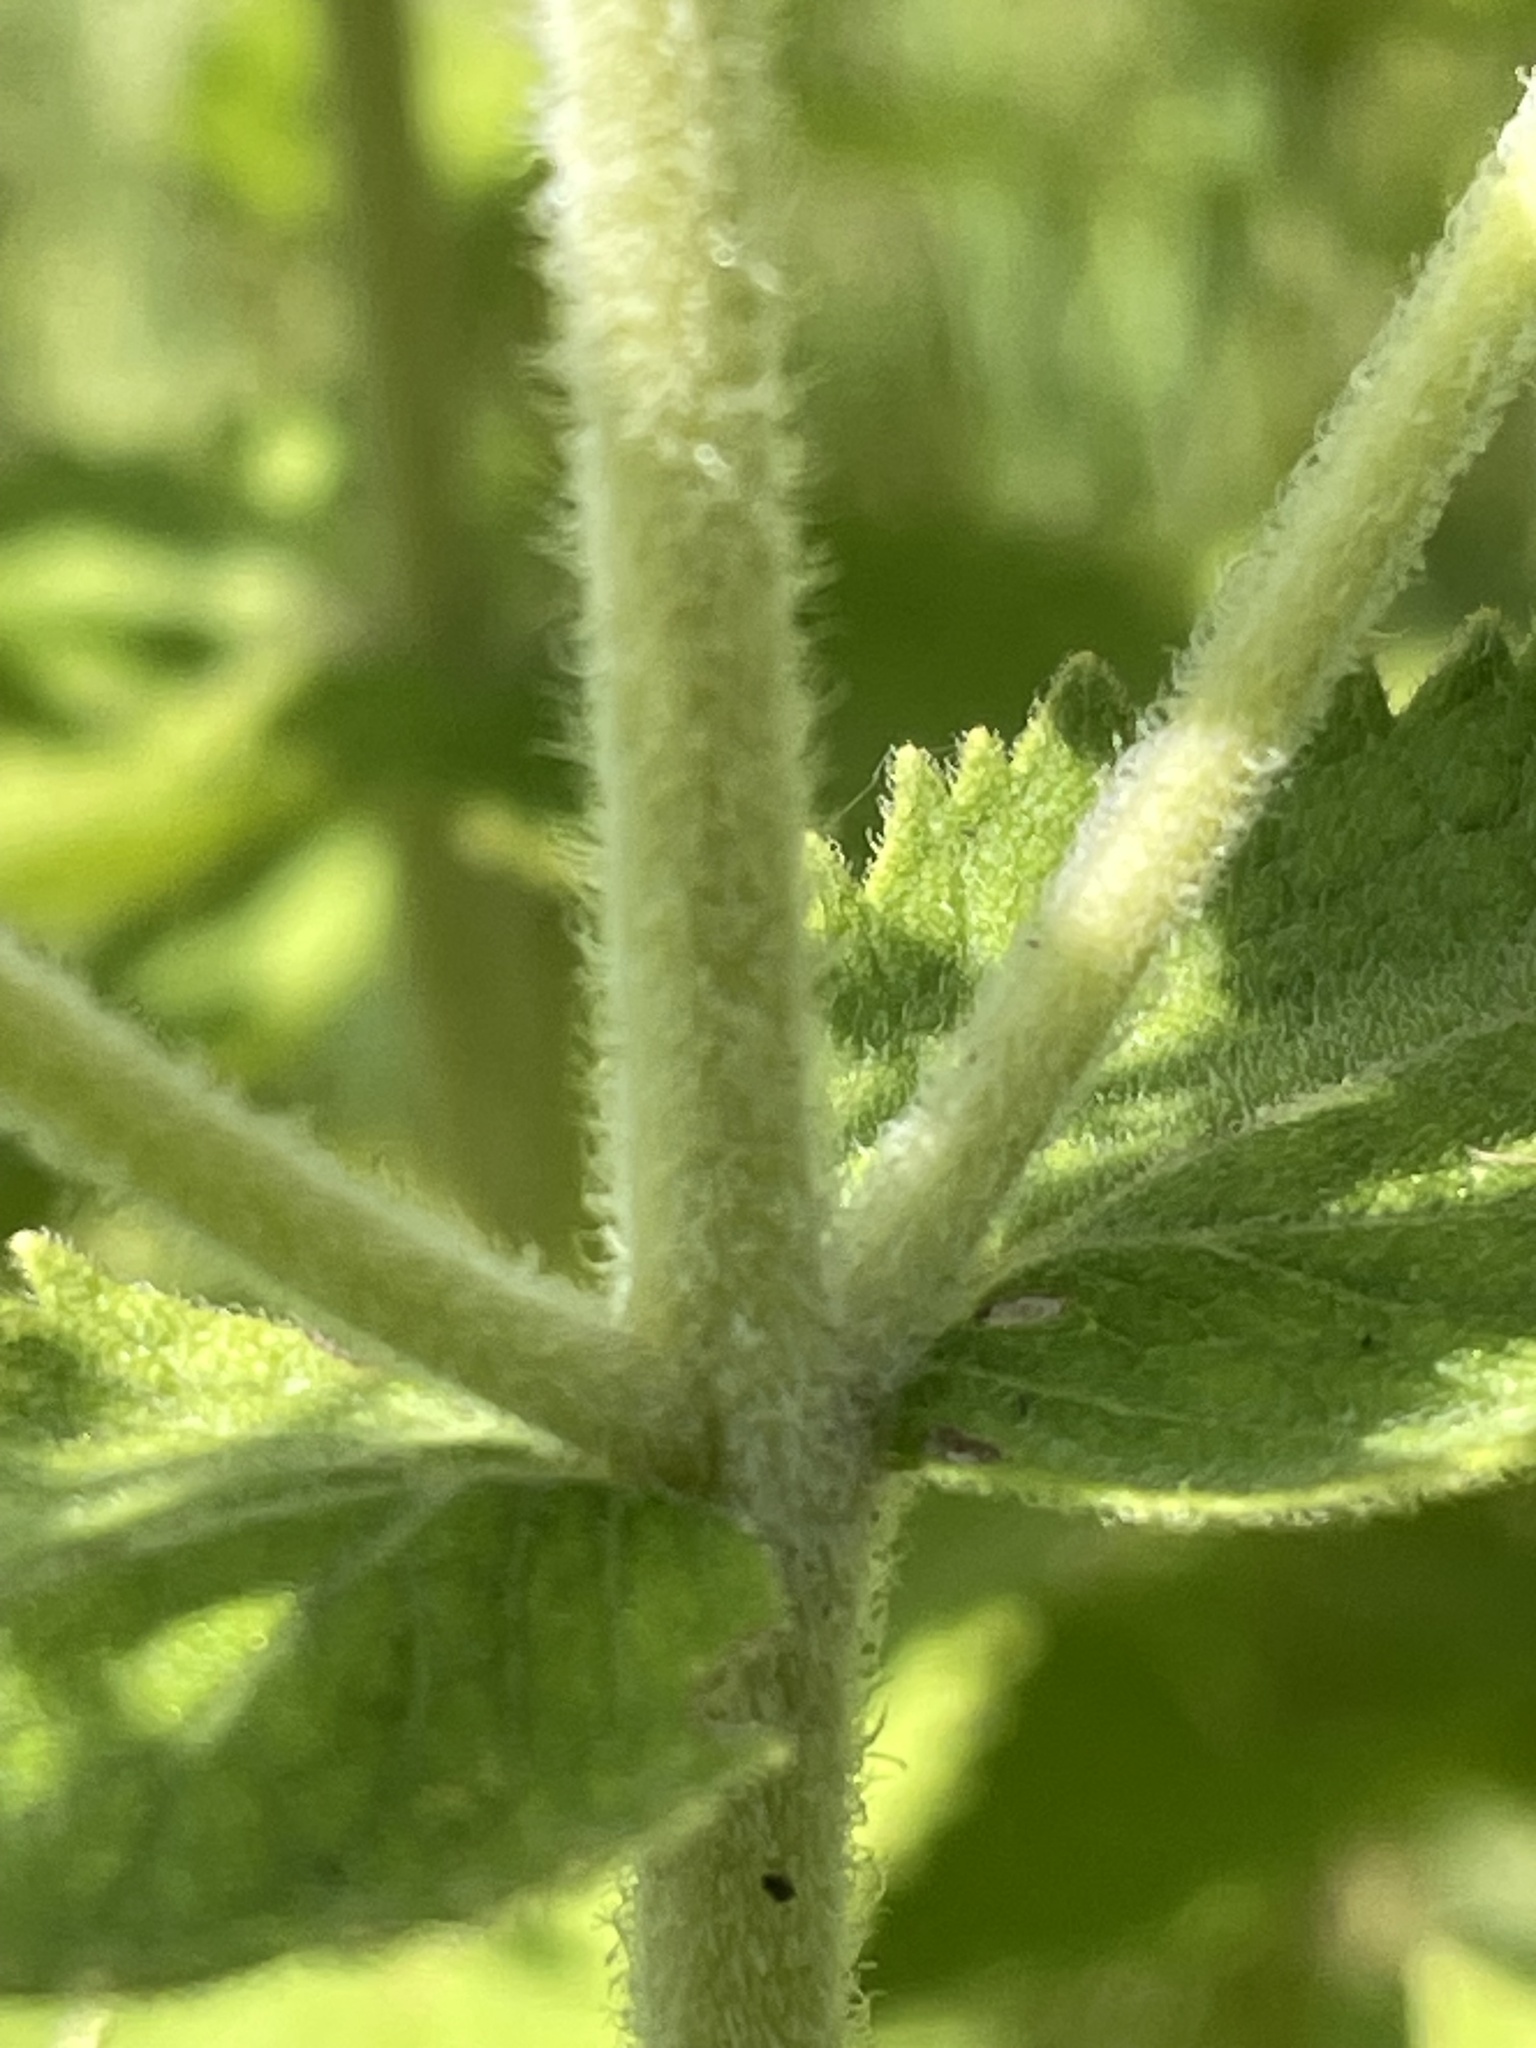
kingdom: Plantae
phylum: Tracheophyta
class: Magnoliopsida
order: Asterales
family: Asteraceae
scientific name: Asteraceae
